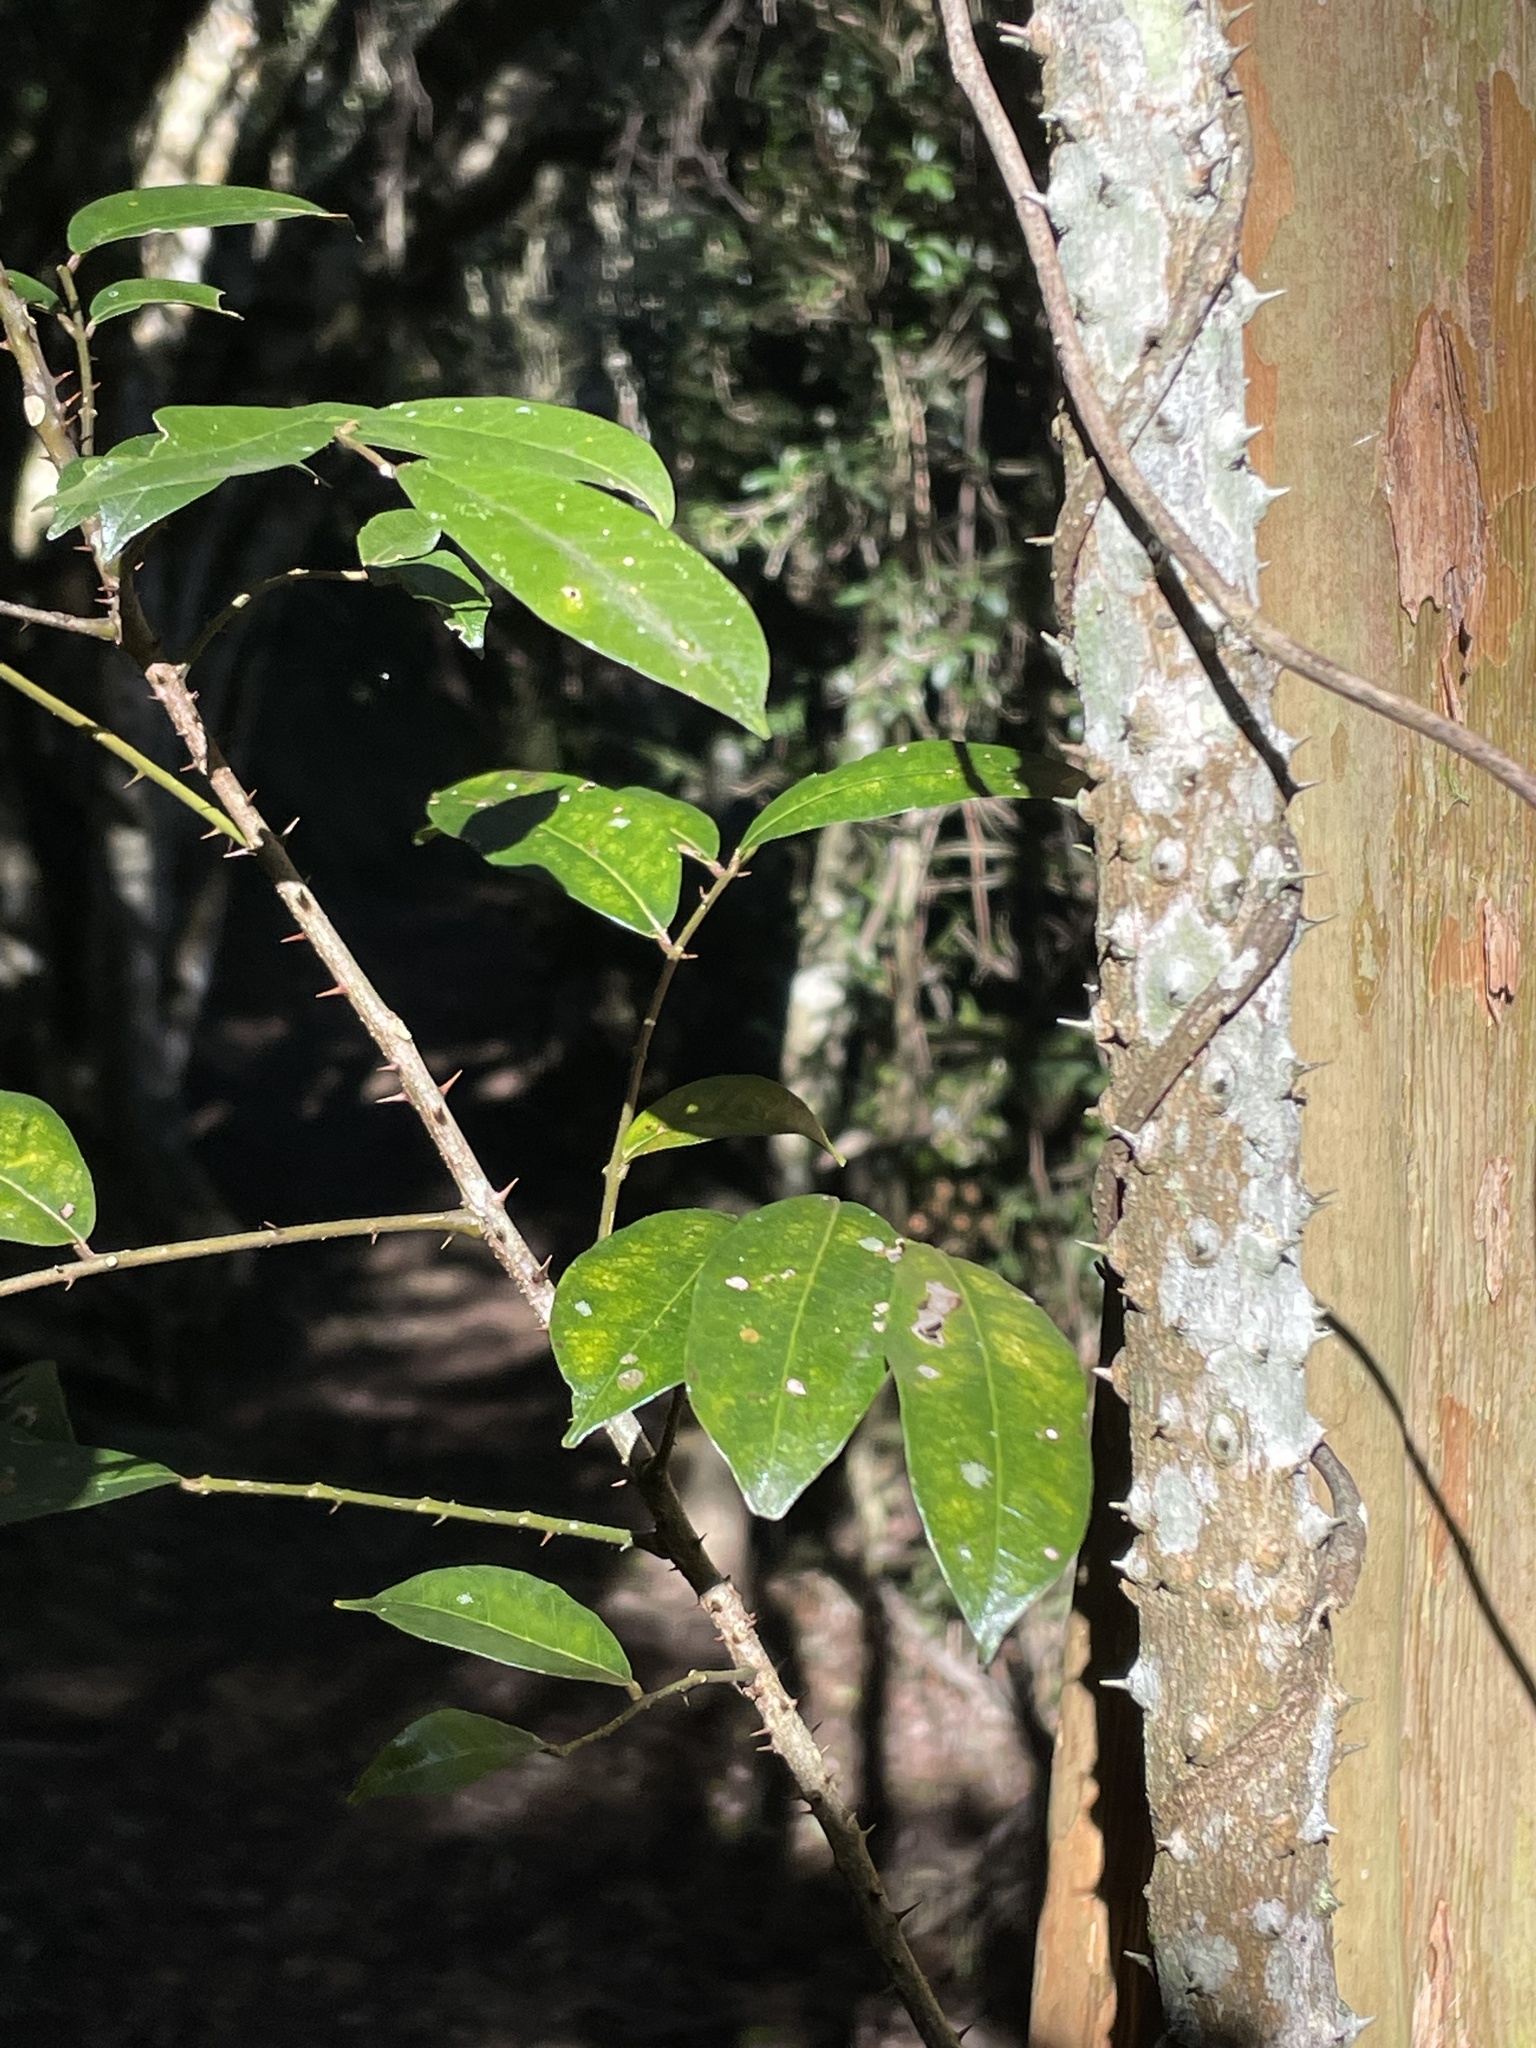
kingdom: Plantae
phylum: Tracheophyta
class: Magnoliopsida
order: Sapindales
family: Rutaceae
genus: Zanthoxylum
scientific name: Zanthoxylum brachyacanthum
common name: Satinwood
